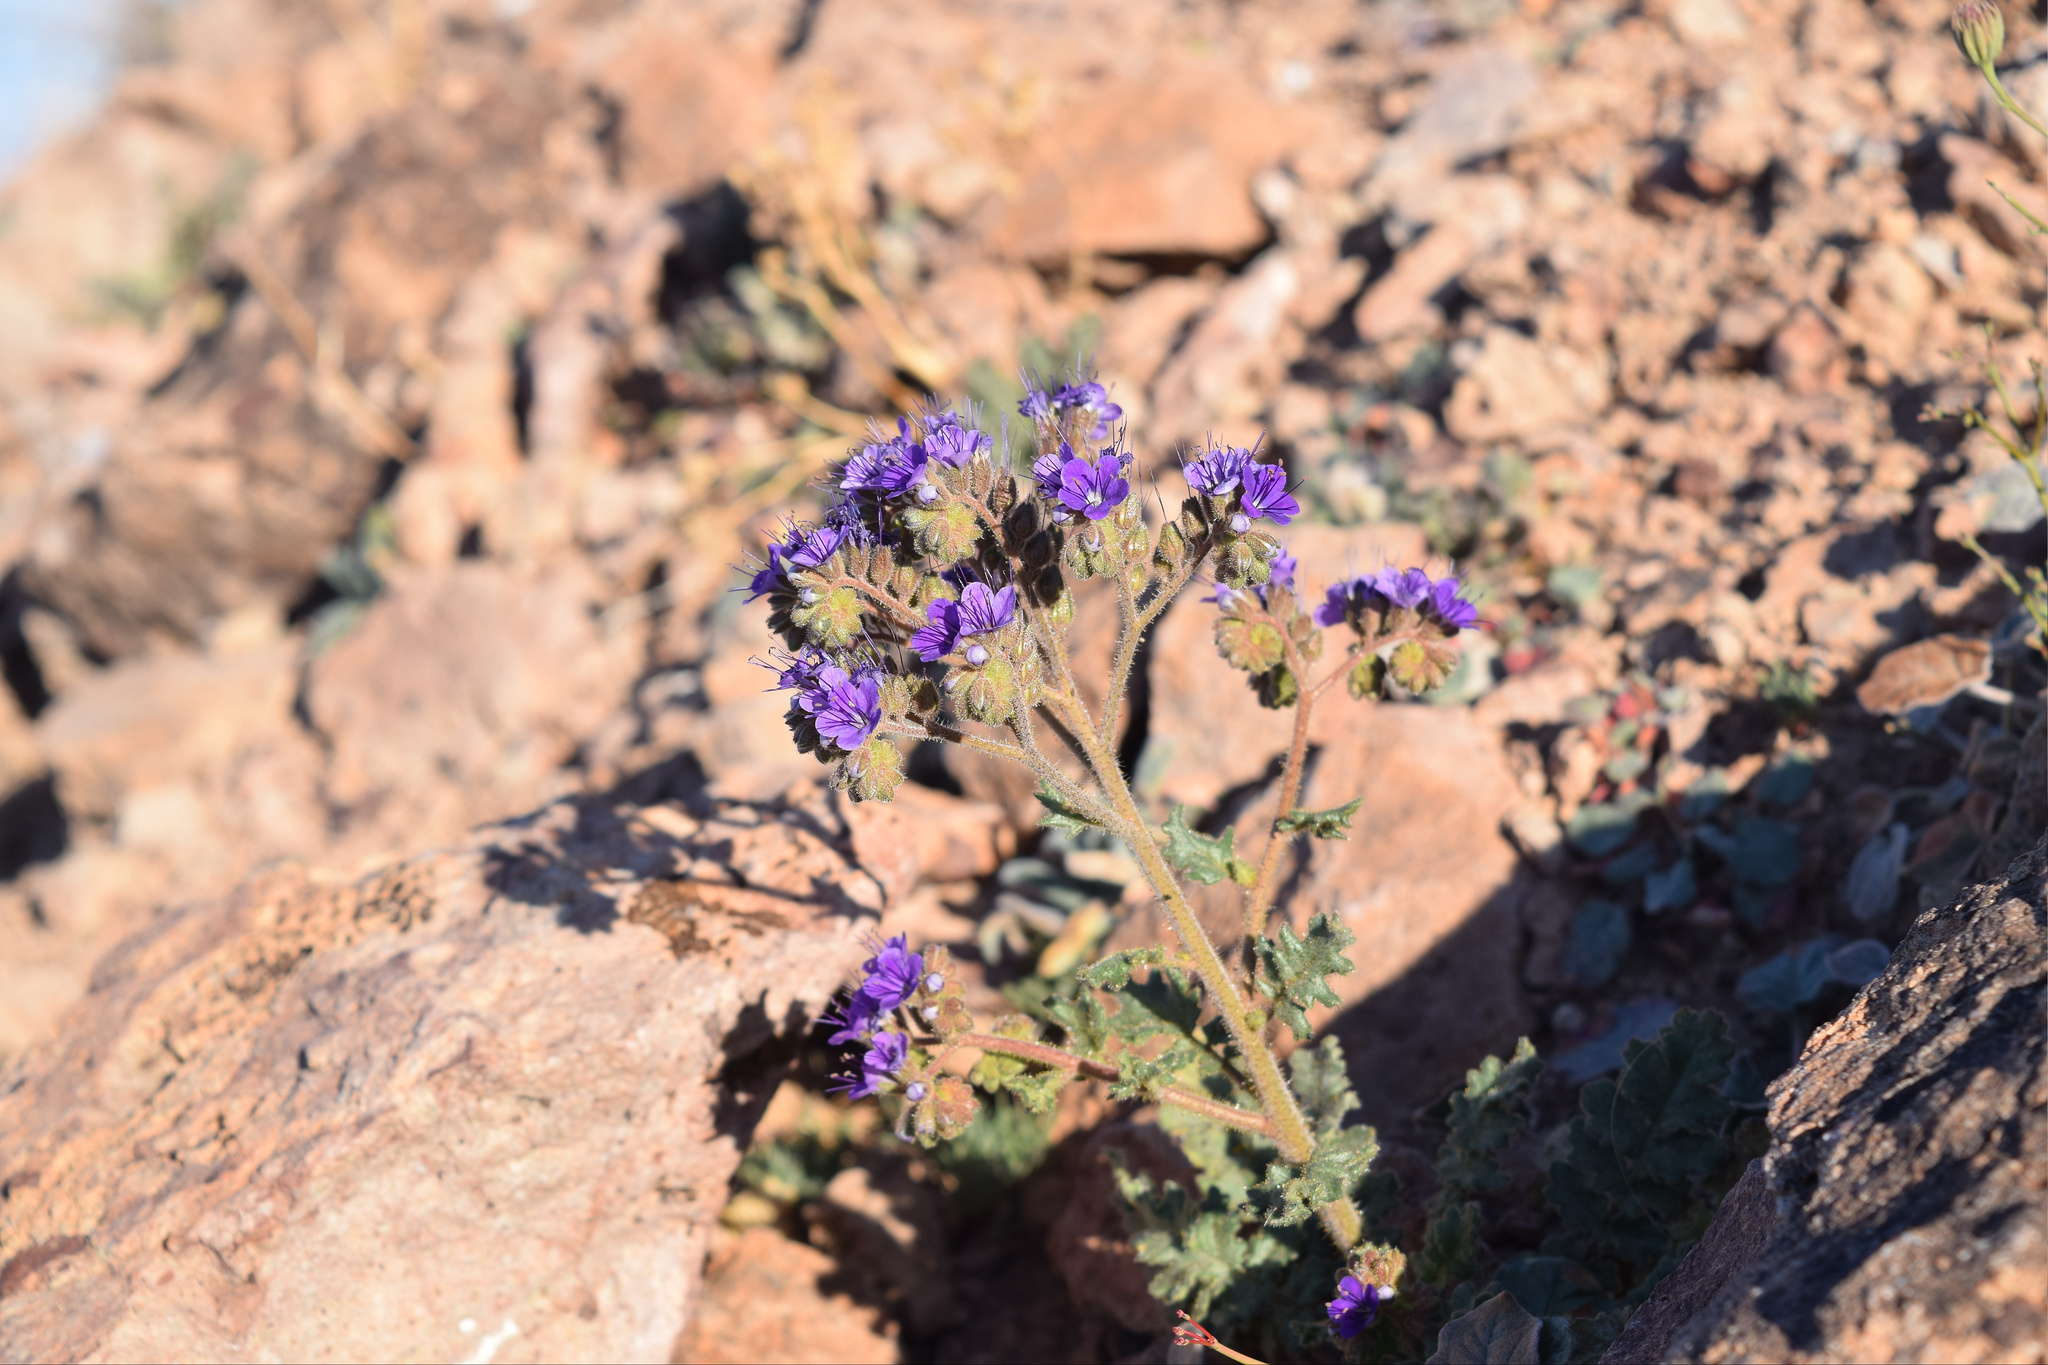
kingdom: Plantae
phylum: Tracheophyta
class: Magnoliopsida
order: Boraginales
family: Hydrophyllaceae
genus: Phacelia
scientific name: Phacelia crenulata
